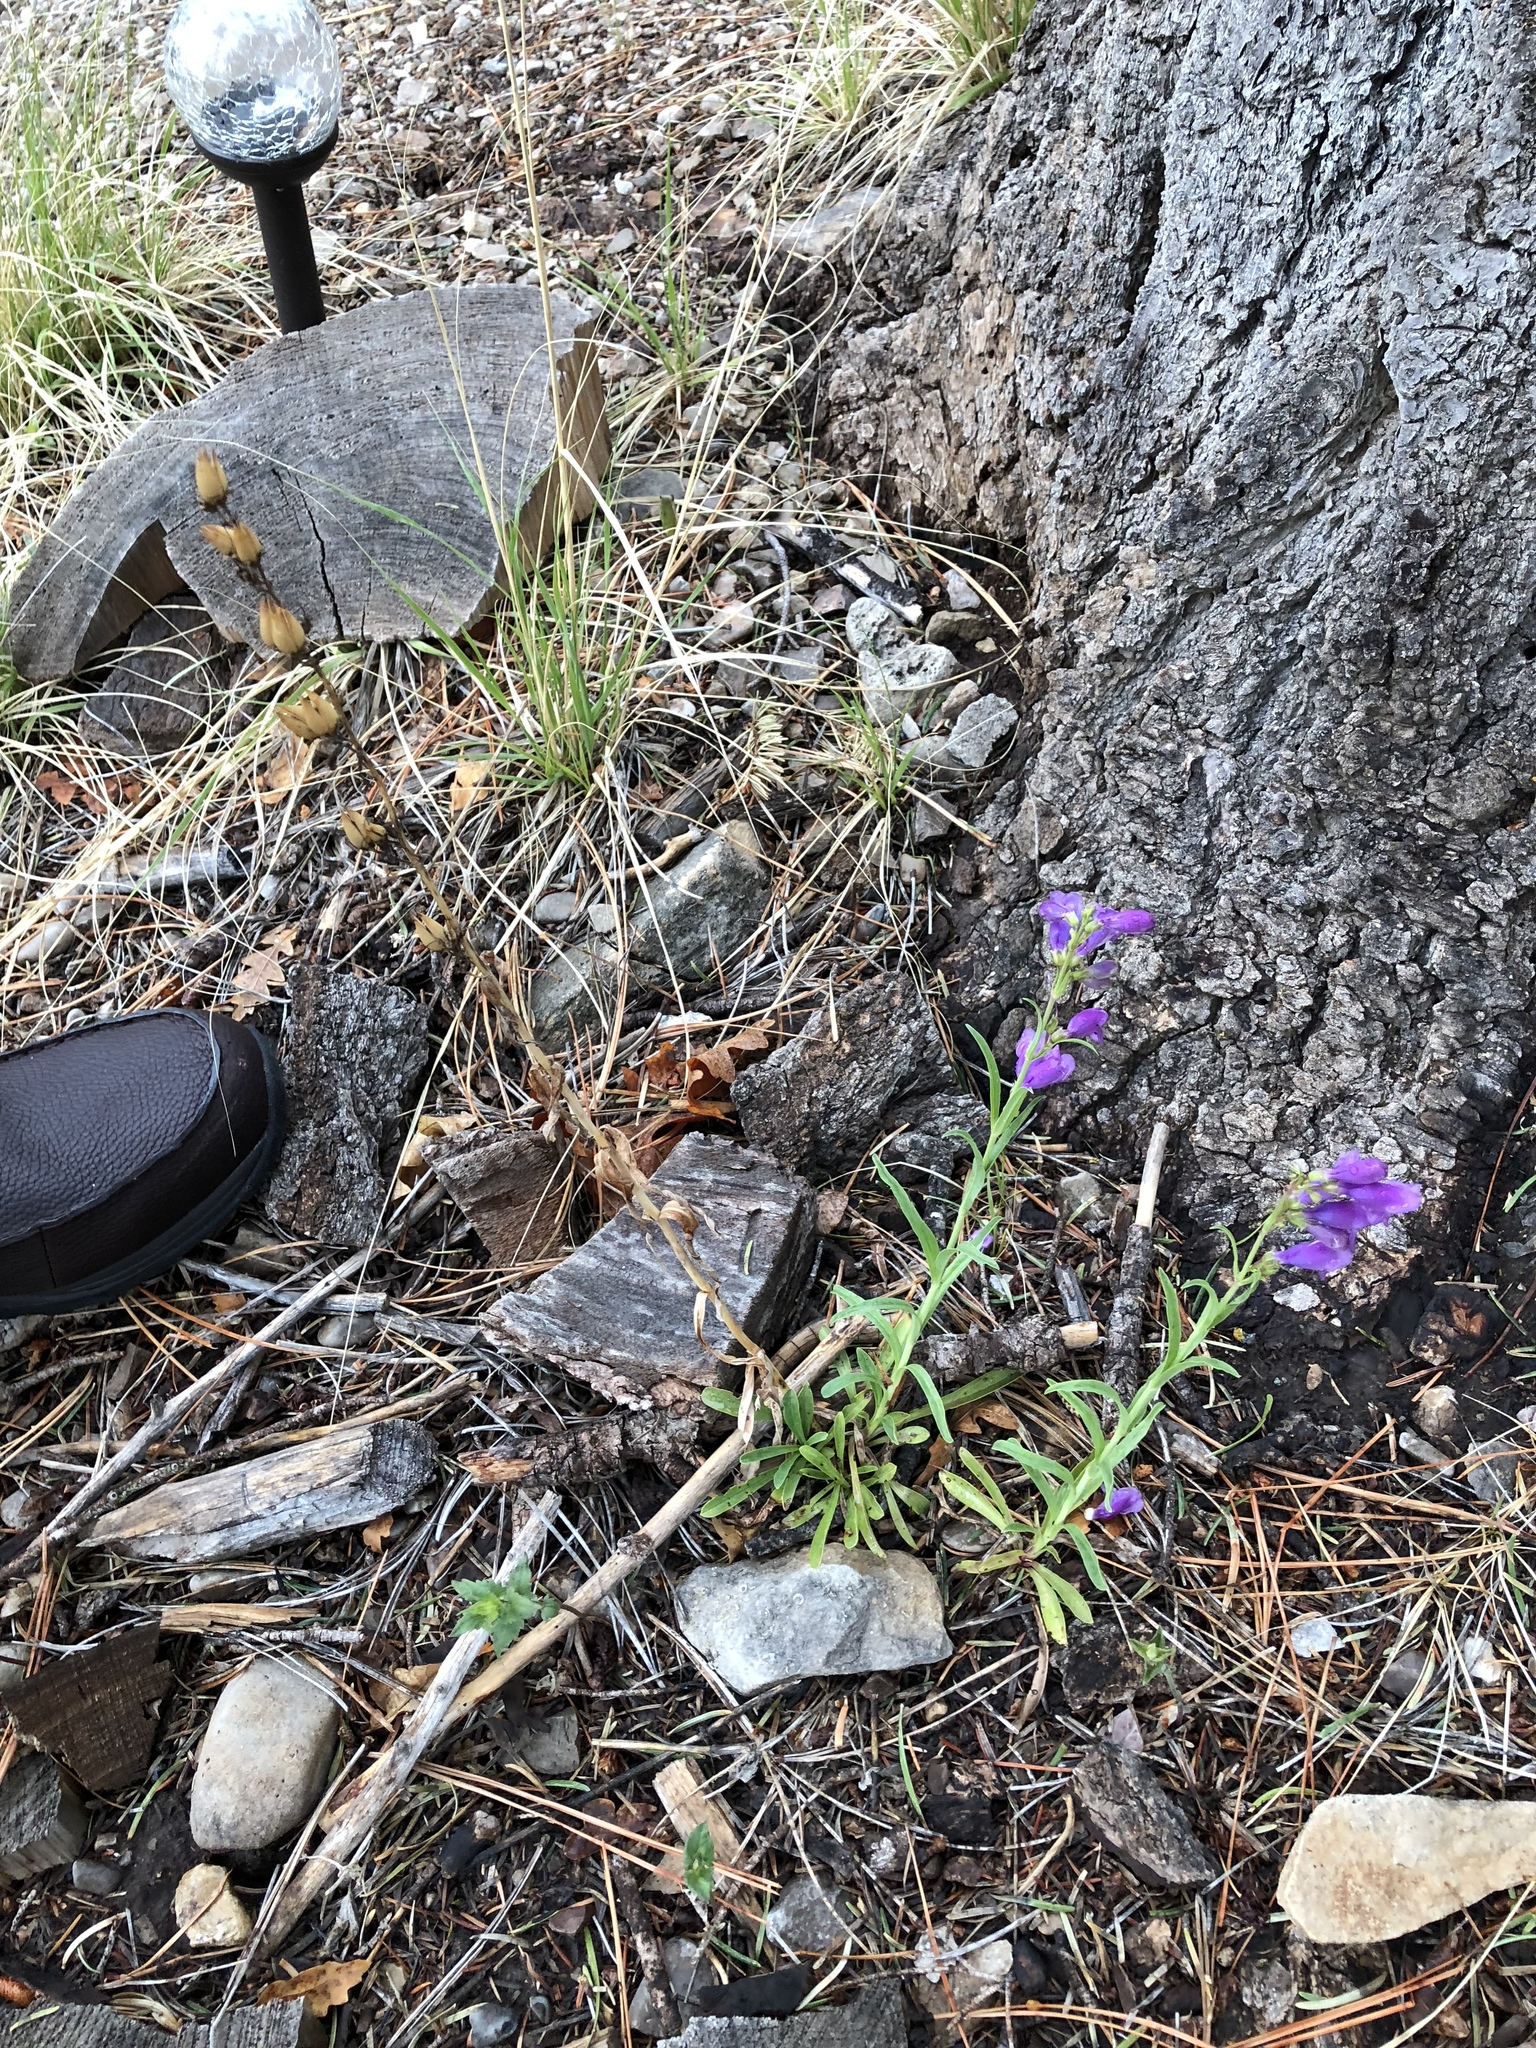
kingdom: Plantae
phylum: Tracheophyta
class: Magnoliopsida
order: Lamiales
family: Plantaginaceae
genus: Penstemon
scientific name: Penstemon neomexicanus
